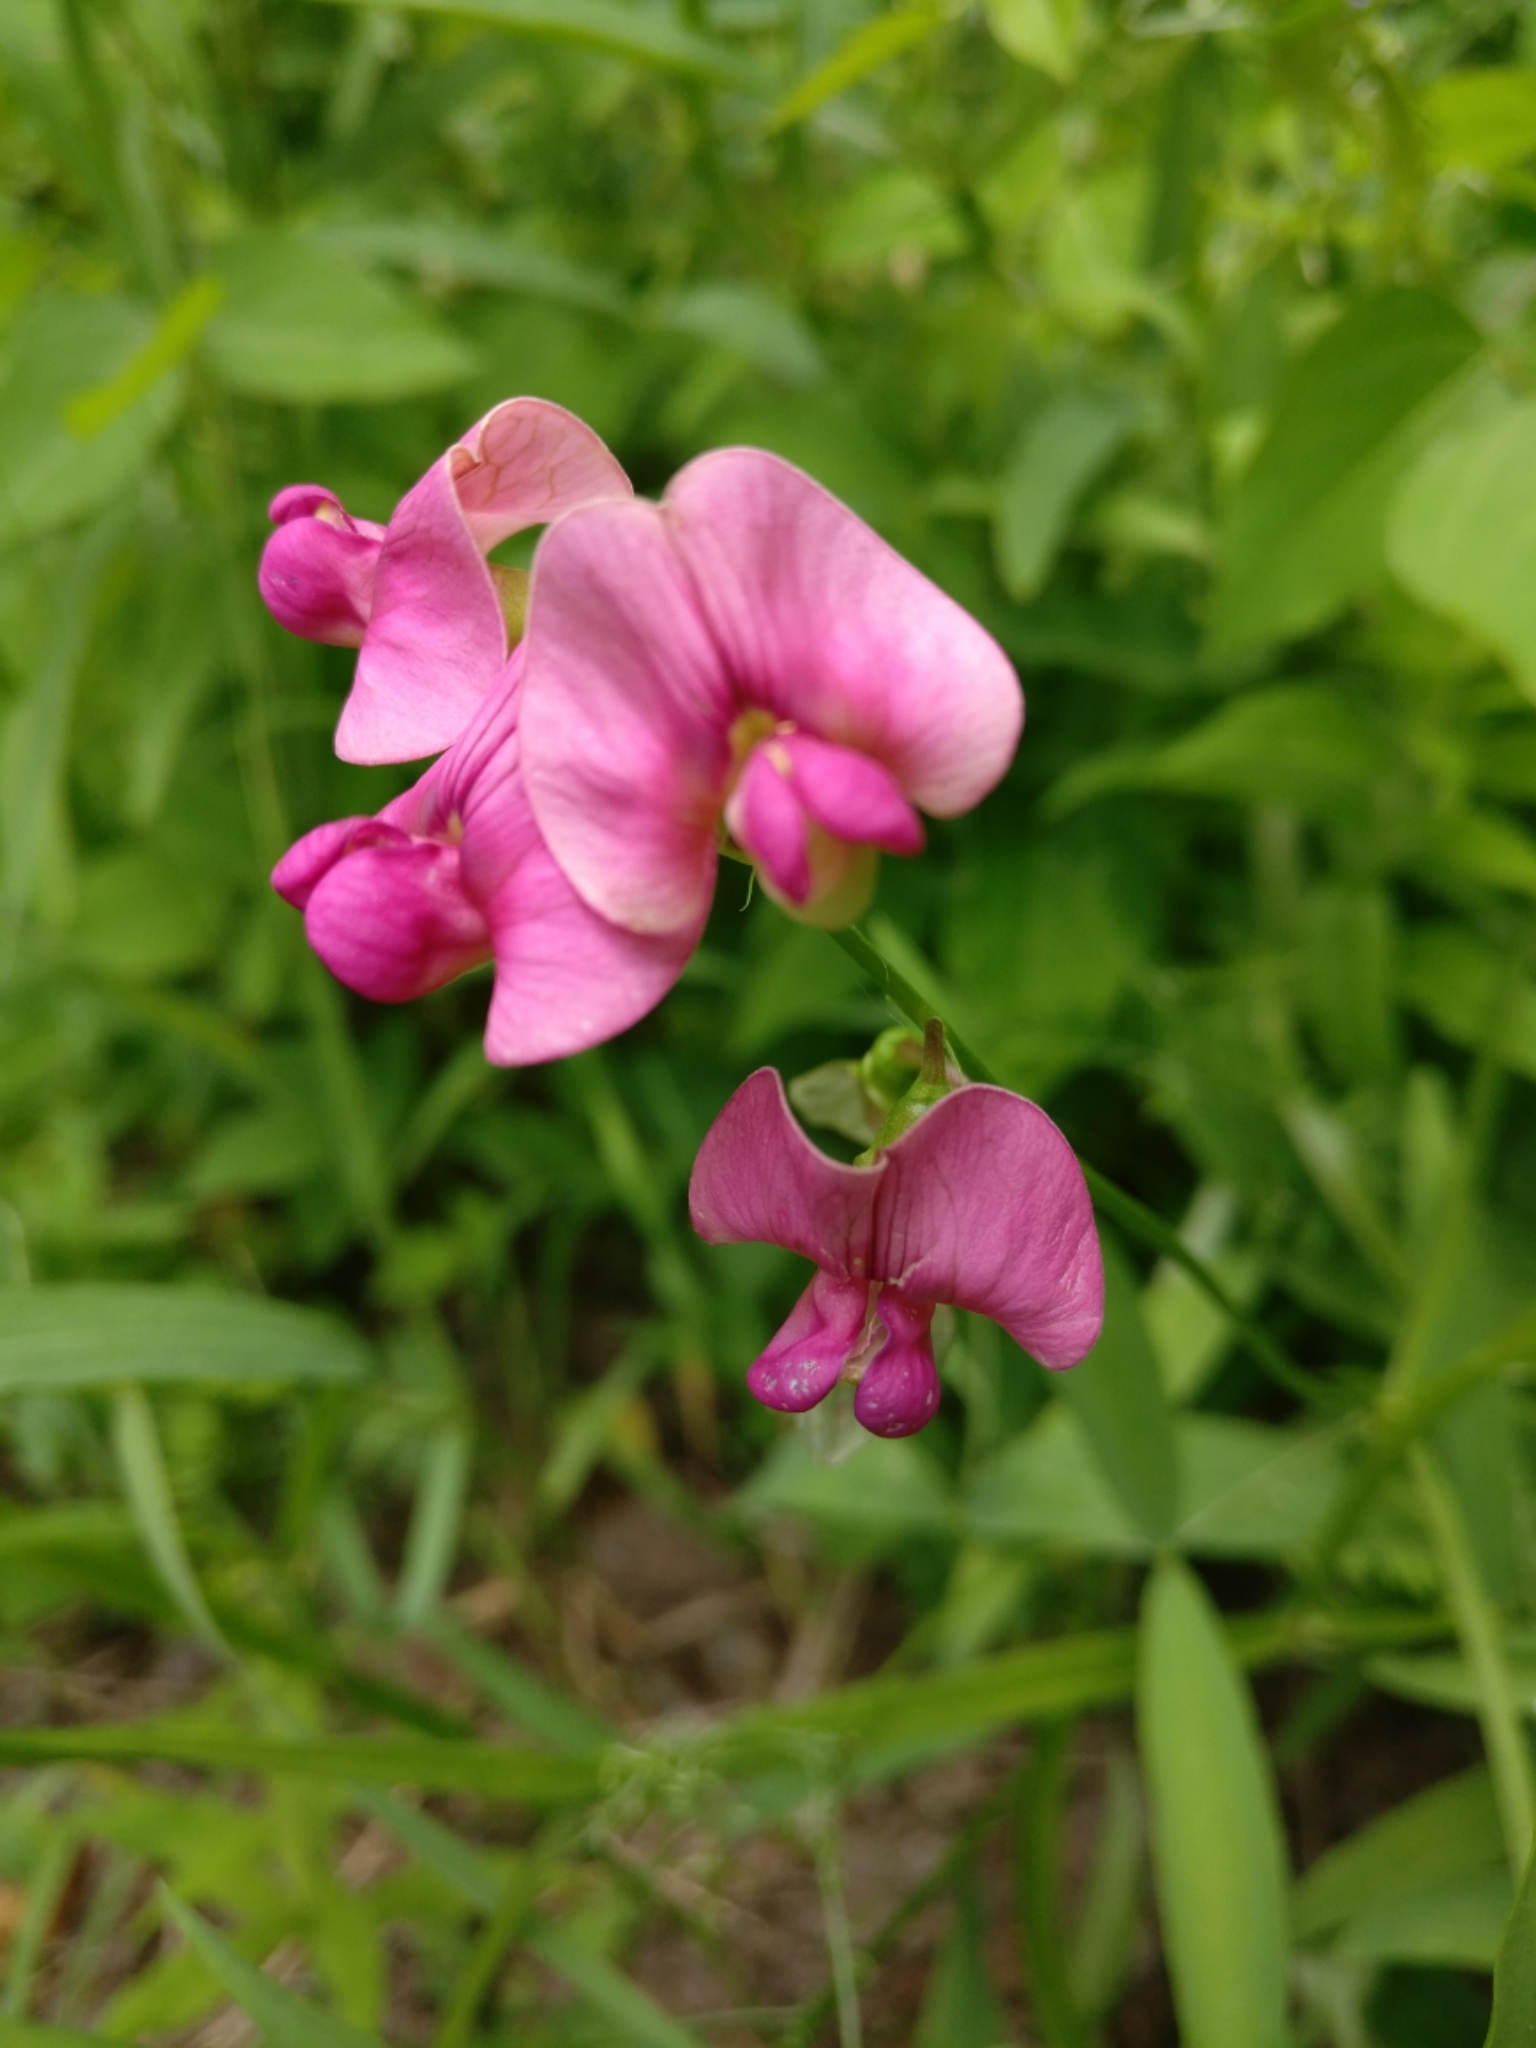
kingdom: Plantae
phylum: Tracheophyta
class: Magnoliopsida
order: Fabales
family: Fabaceae
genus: Lathyrus
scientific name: Lathyrus latifolius
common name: Perennial pea
